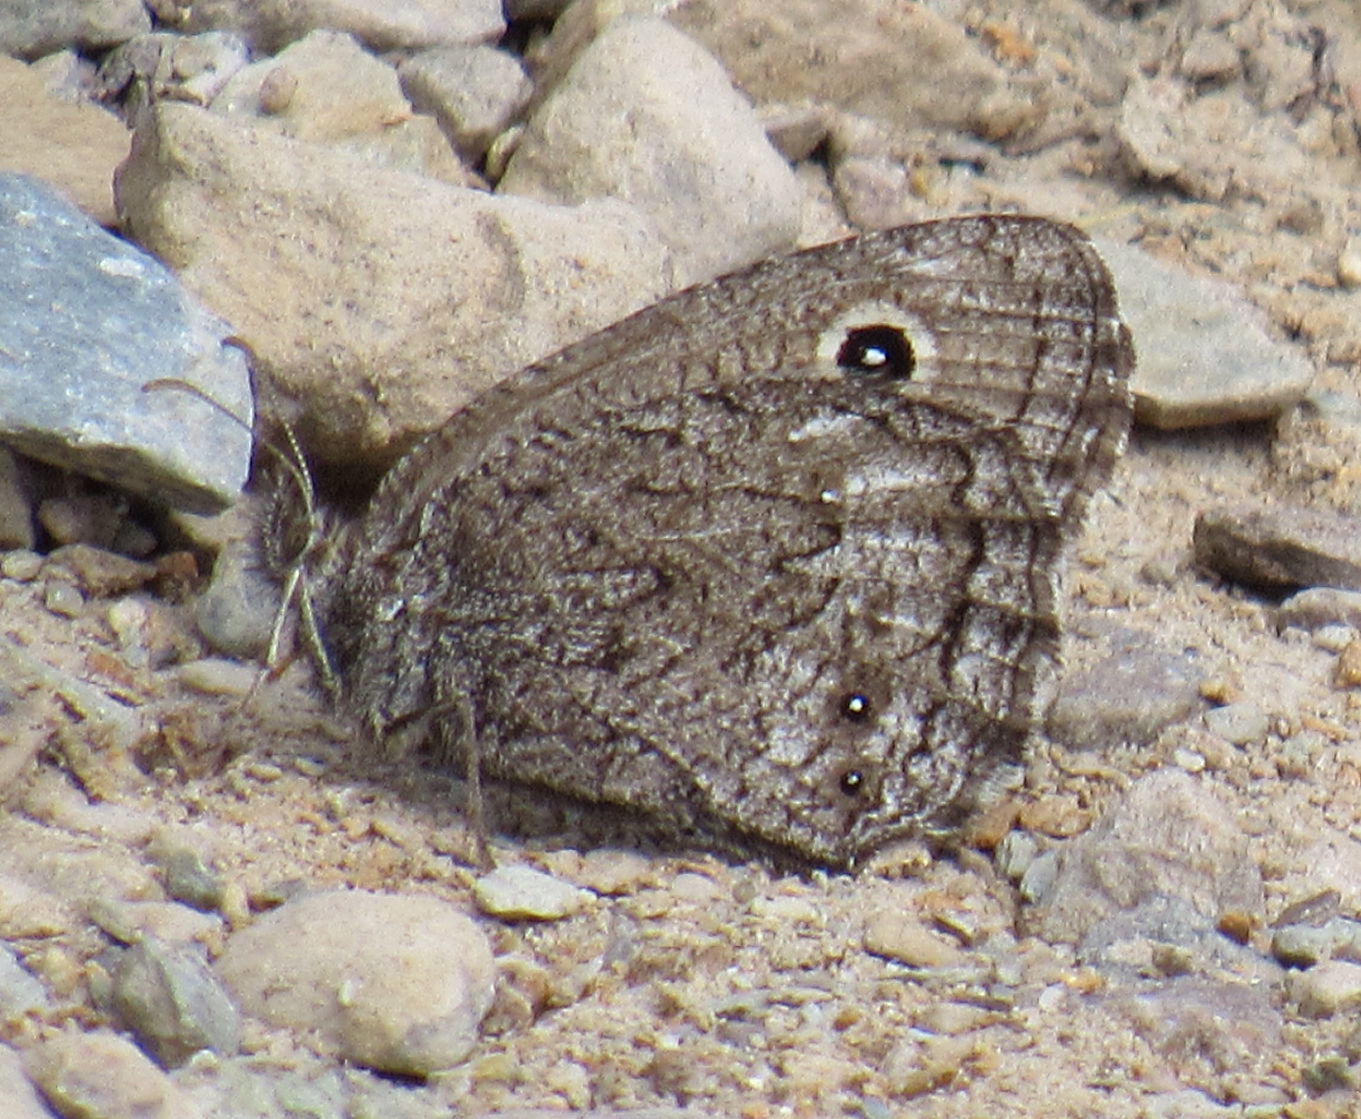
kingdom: Animalia
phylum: Arthropoda
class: Insecta
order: Lepidoptera
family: Nymphalidae
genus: Cercyonis
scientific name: Cercyonis oetus
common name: Small wood-nymph
